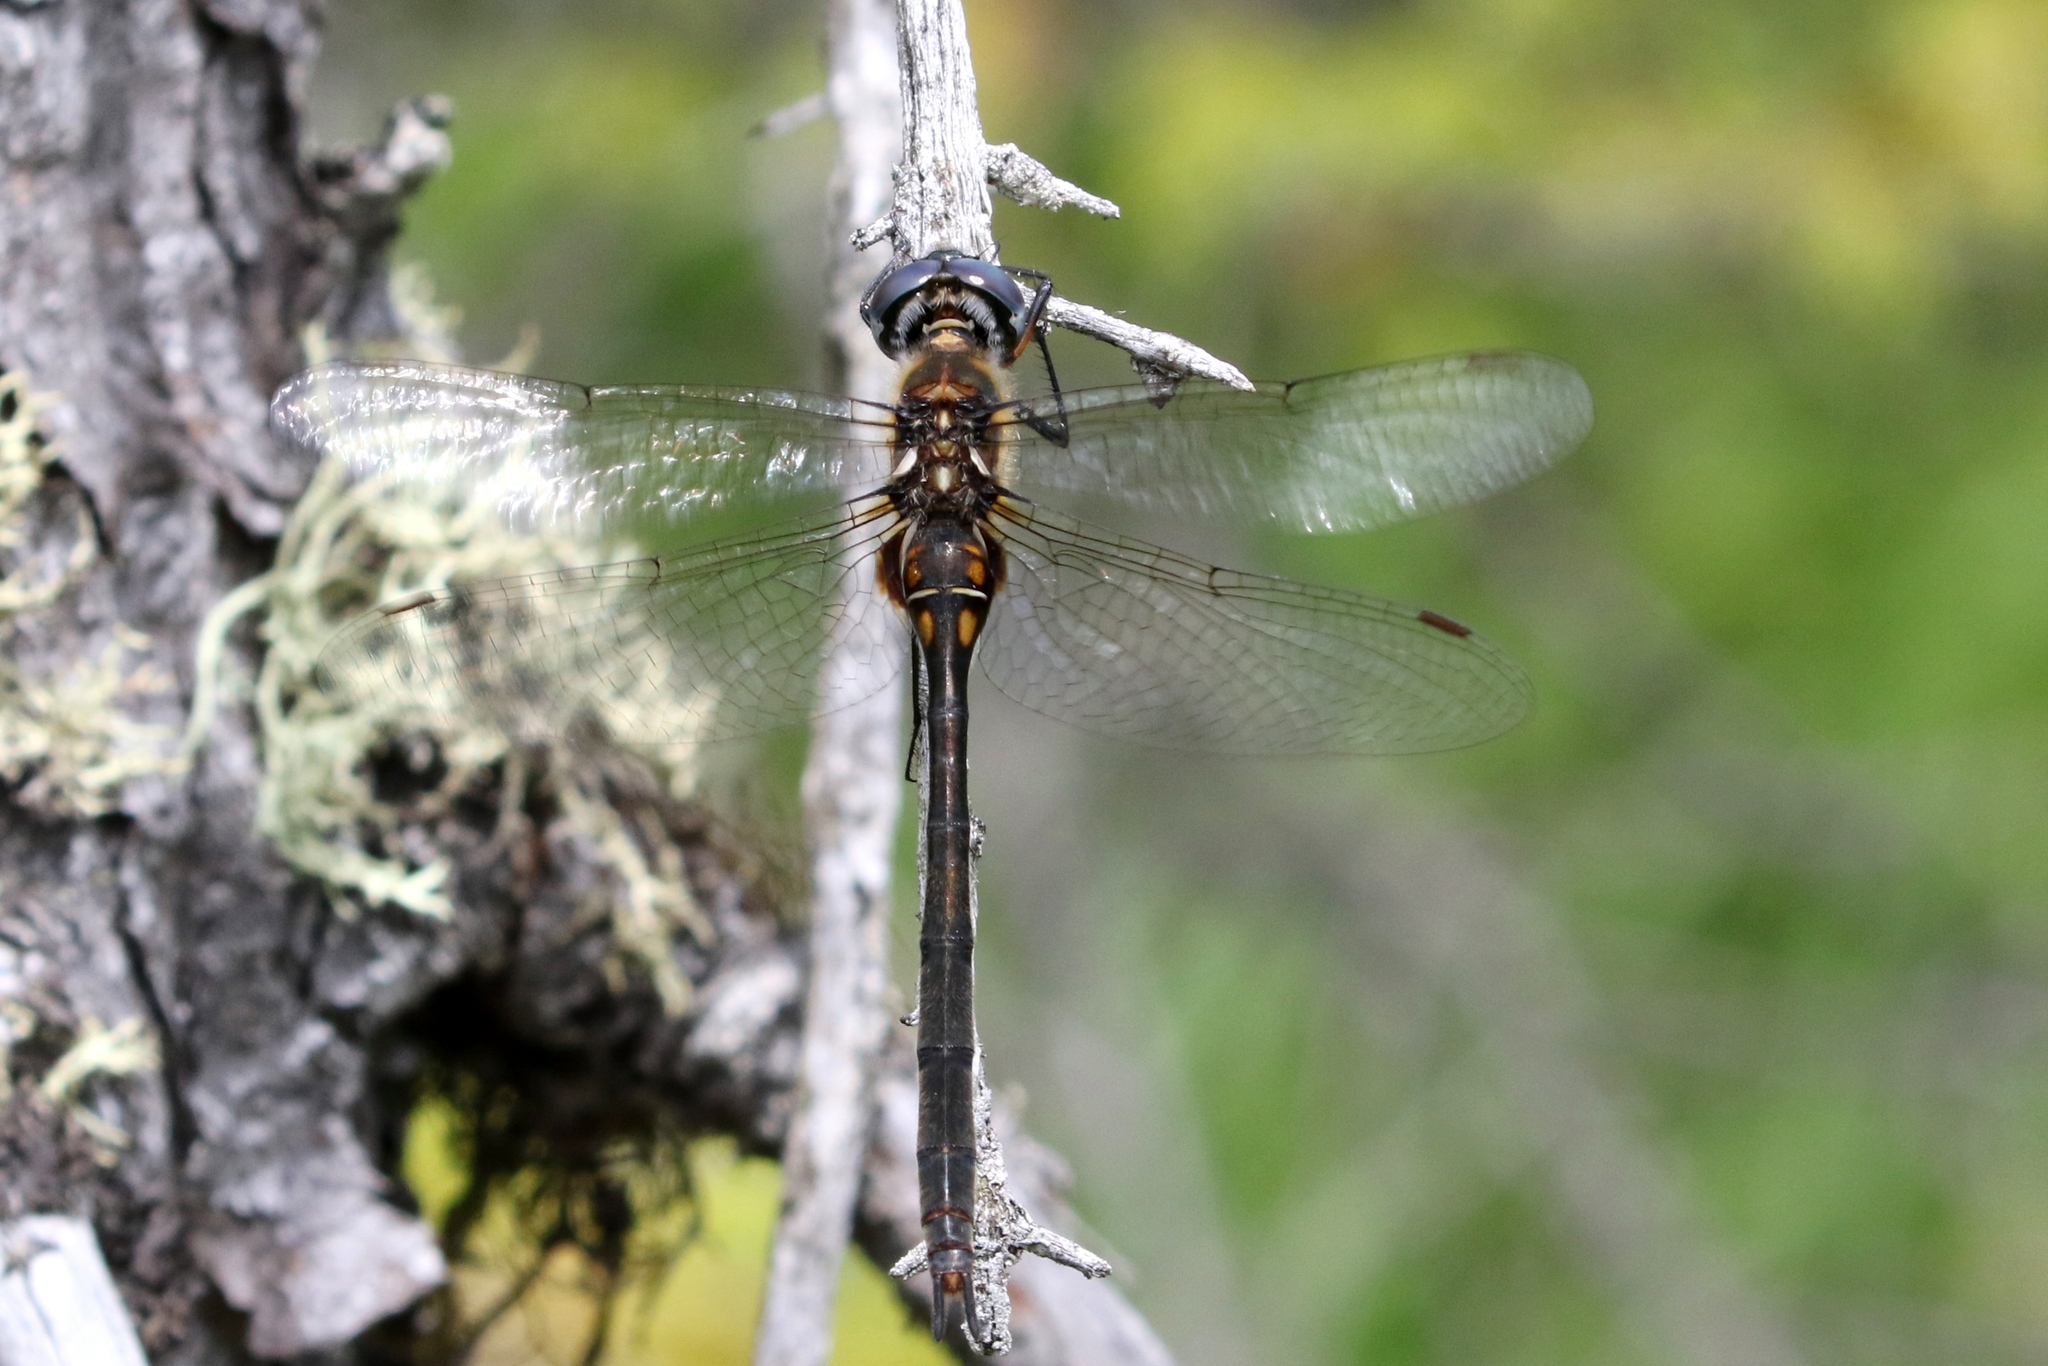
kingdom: Animalia
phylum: Arthropoda
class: Insecta
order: Odonata
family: Corduliidae
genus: Somatochlora
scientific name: Somatochlora franklini
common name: Delicate emerald
